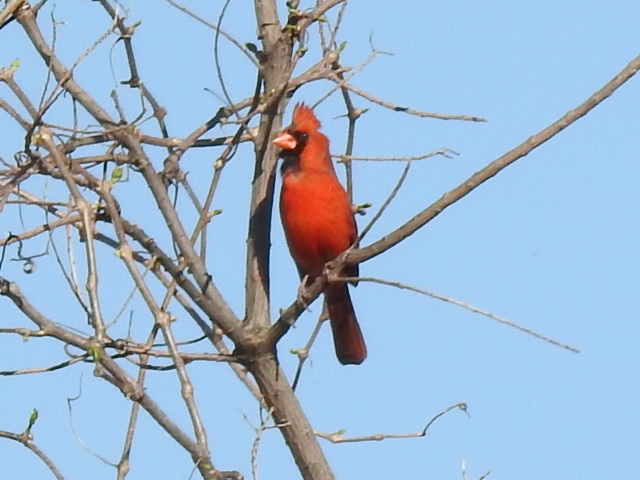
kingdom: Animalia
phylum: Chordata
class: Aves
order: Passeriformes
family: Cardinalidae
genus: Cardinalis
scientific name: Cardinalis cardinalis
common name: Northern cardinal
